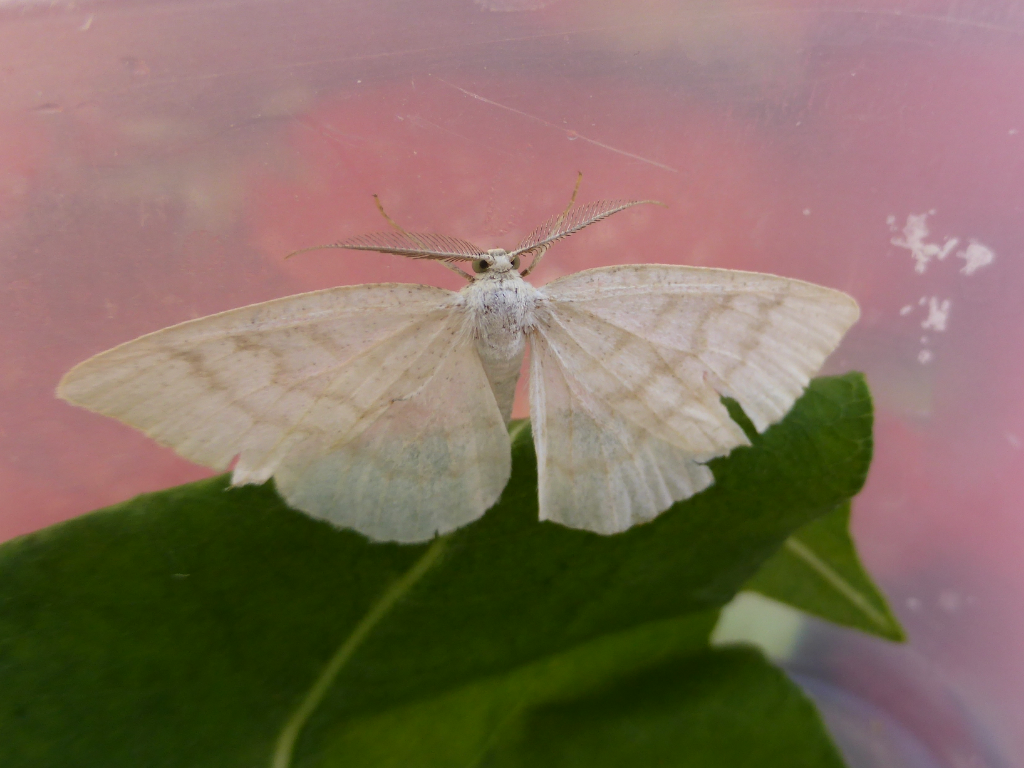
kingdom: Animalia
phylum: Arthropoda
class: Insecta
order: Lepidoptera
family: Geometridae
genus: Cabera
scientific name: Cabera exanthemata
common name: Common wave
